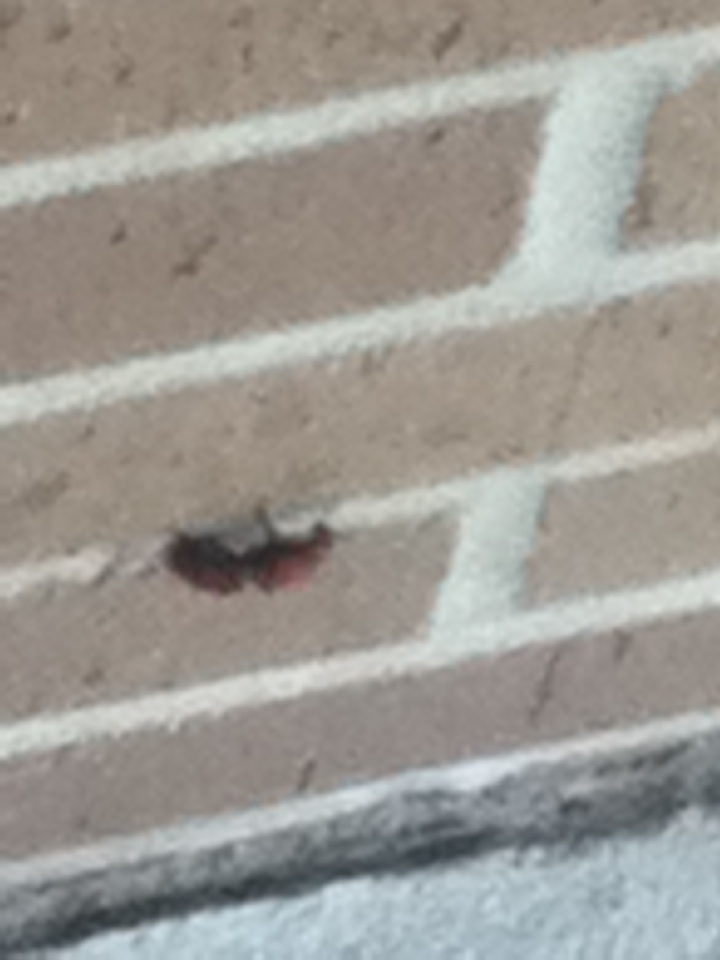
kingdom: Animalia
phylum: Arthropoda
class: Insecta
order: Hymenoptera
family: Mutillidae
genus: Dasymutilla
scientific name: Dasymutilla occidentalis
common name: Common eastern velvet ant
